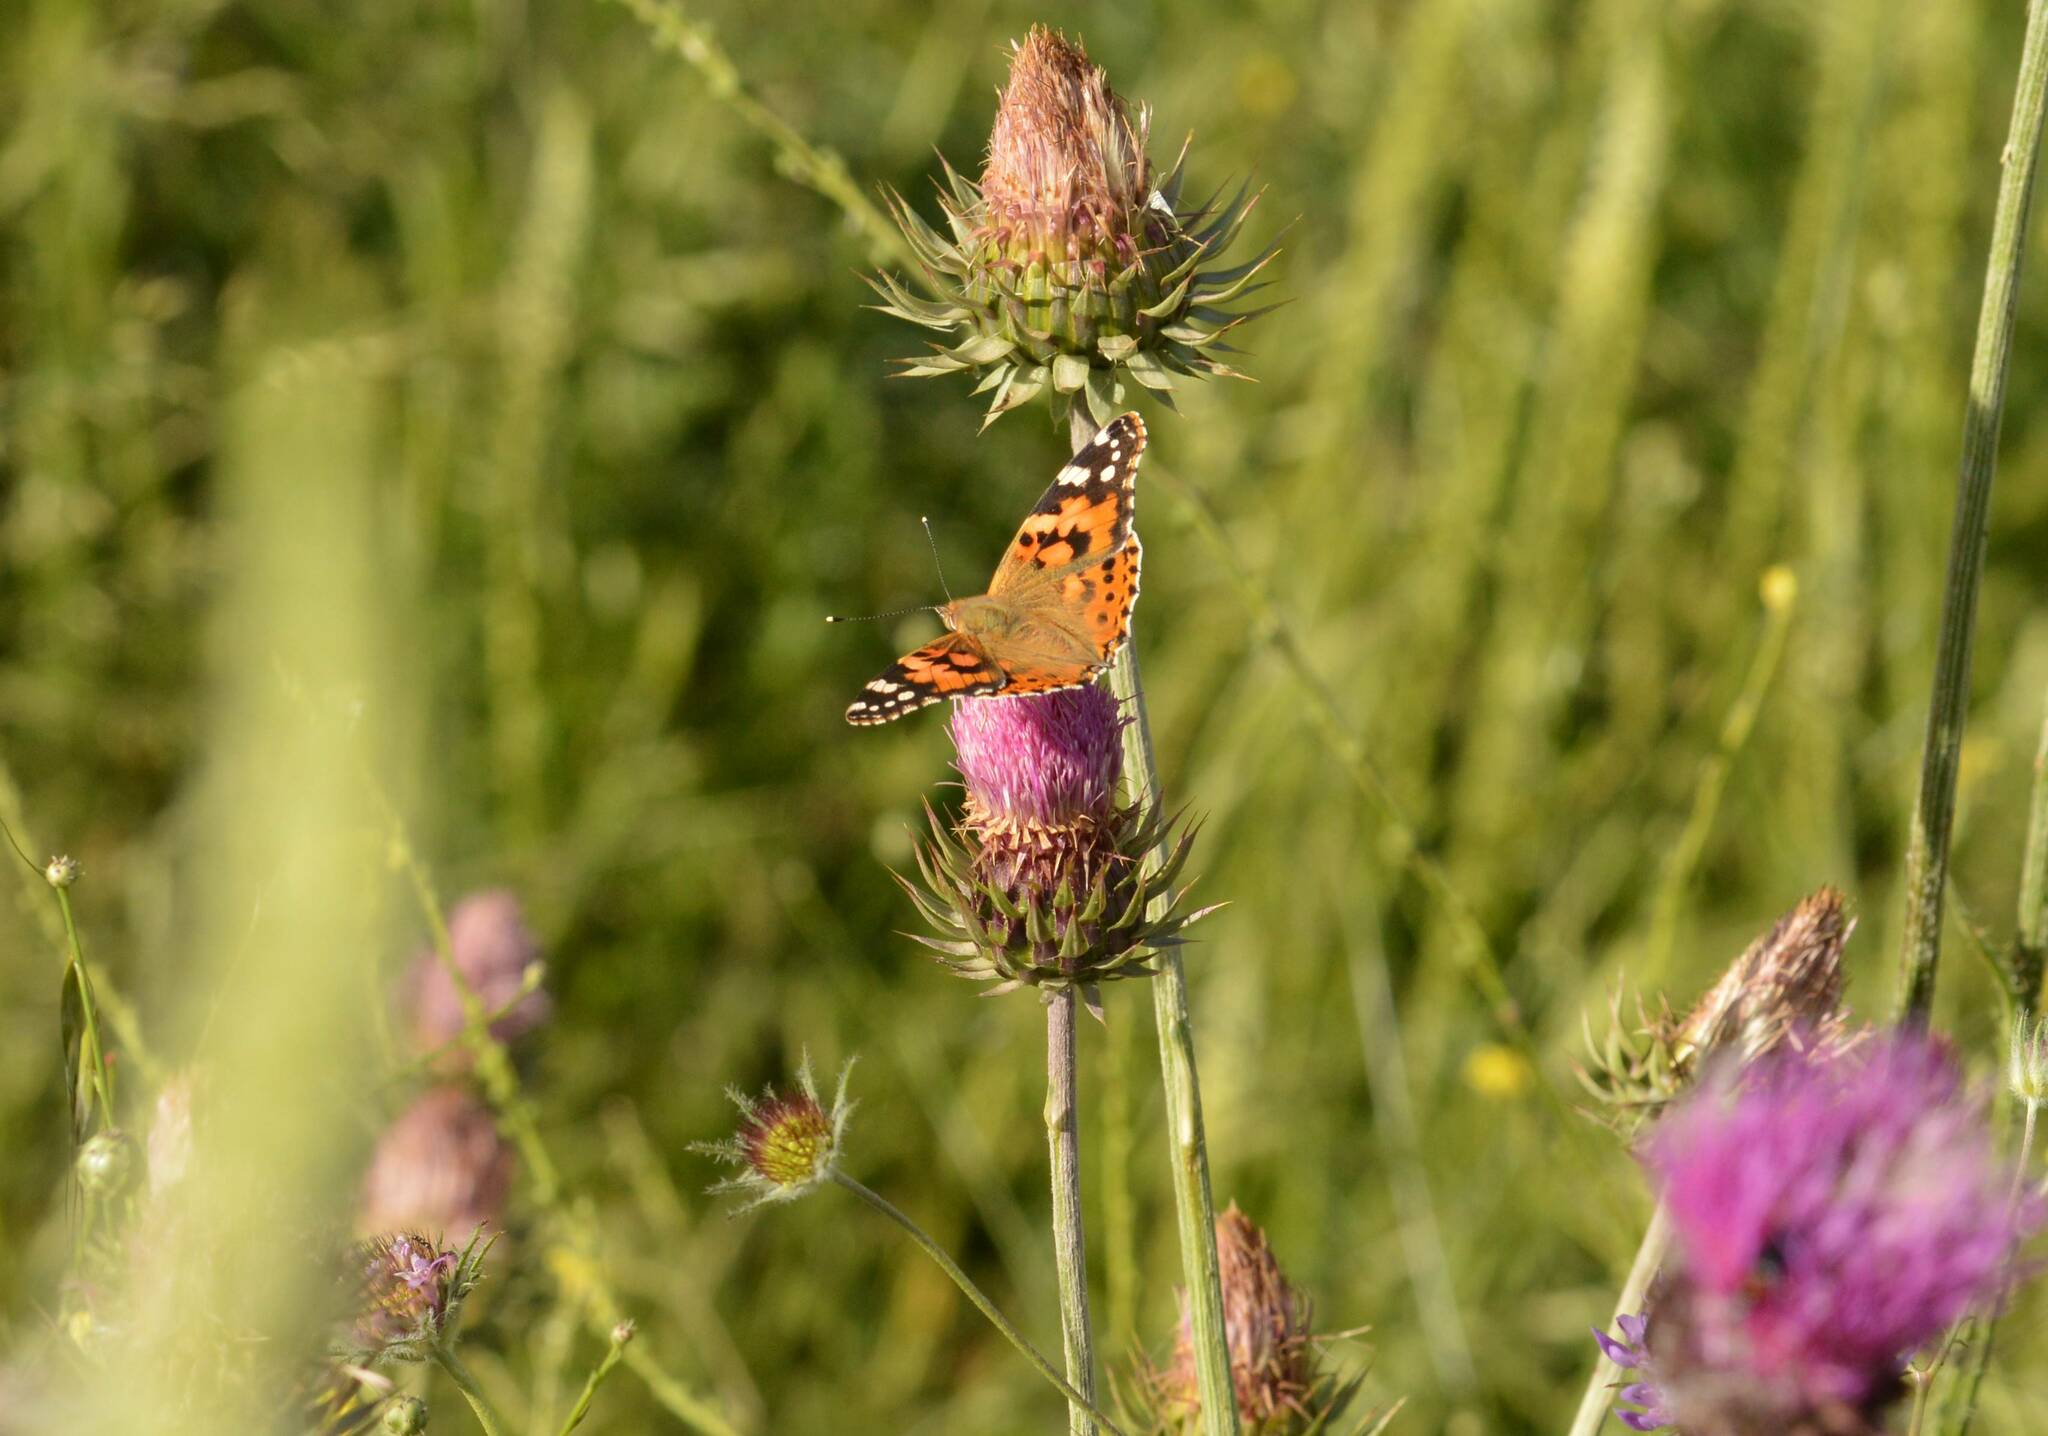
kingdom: Animalia
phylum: Arthropoda
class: Insecta
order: Lepidoptera
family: Nymphalidae
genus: Vanessa
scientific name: Vanessa cardui
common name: Painted lady
